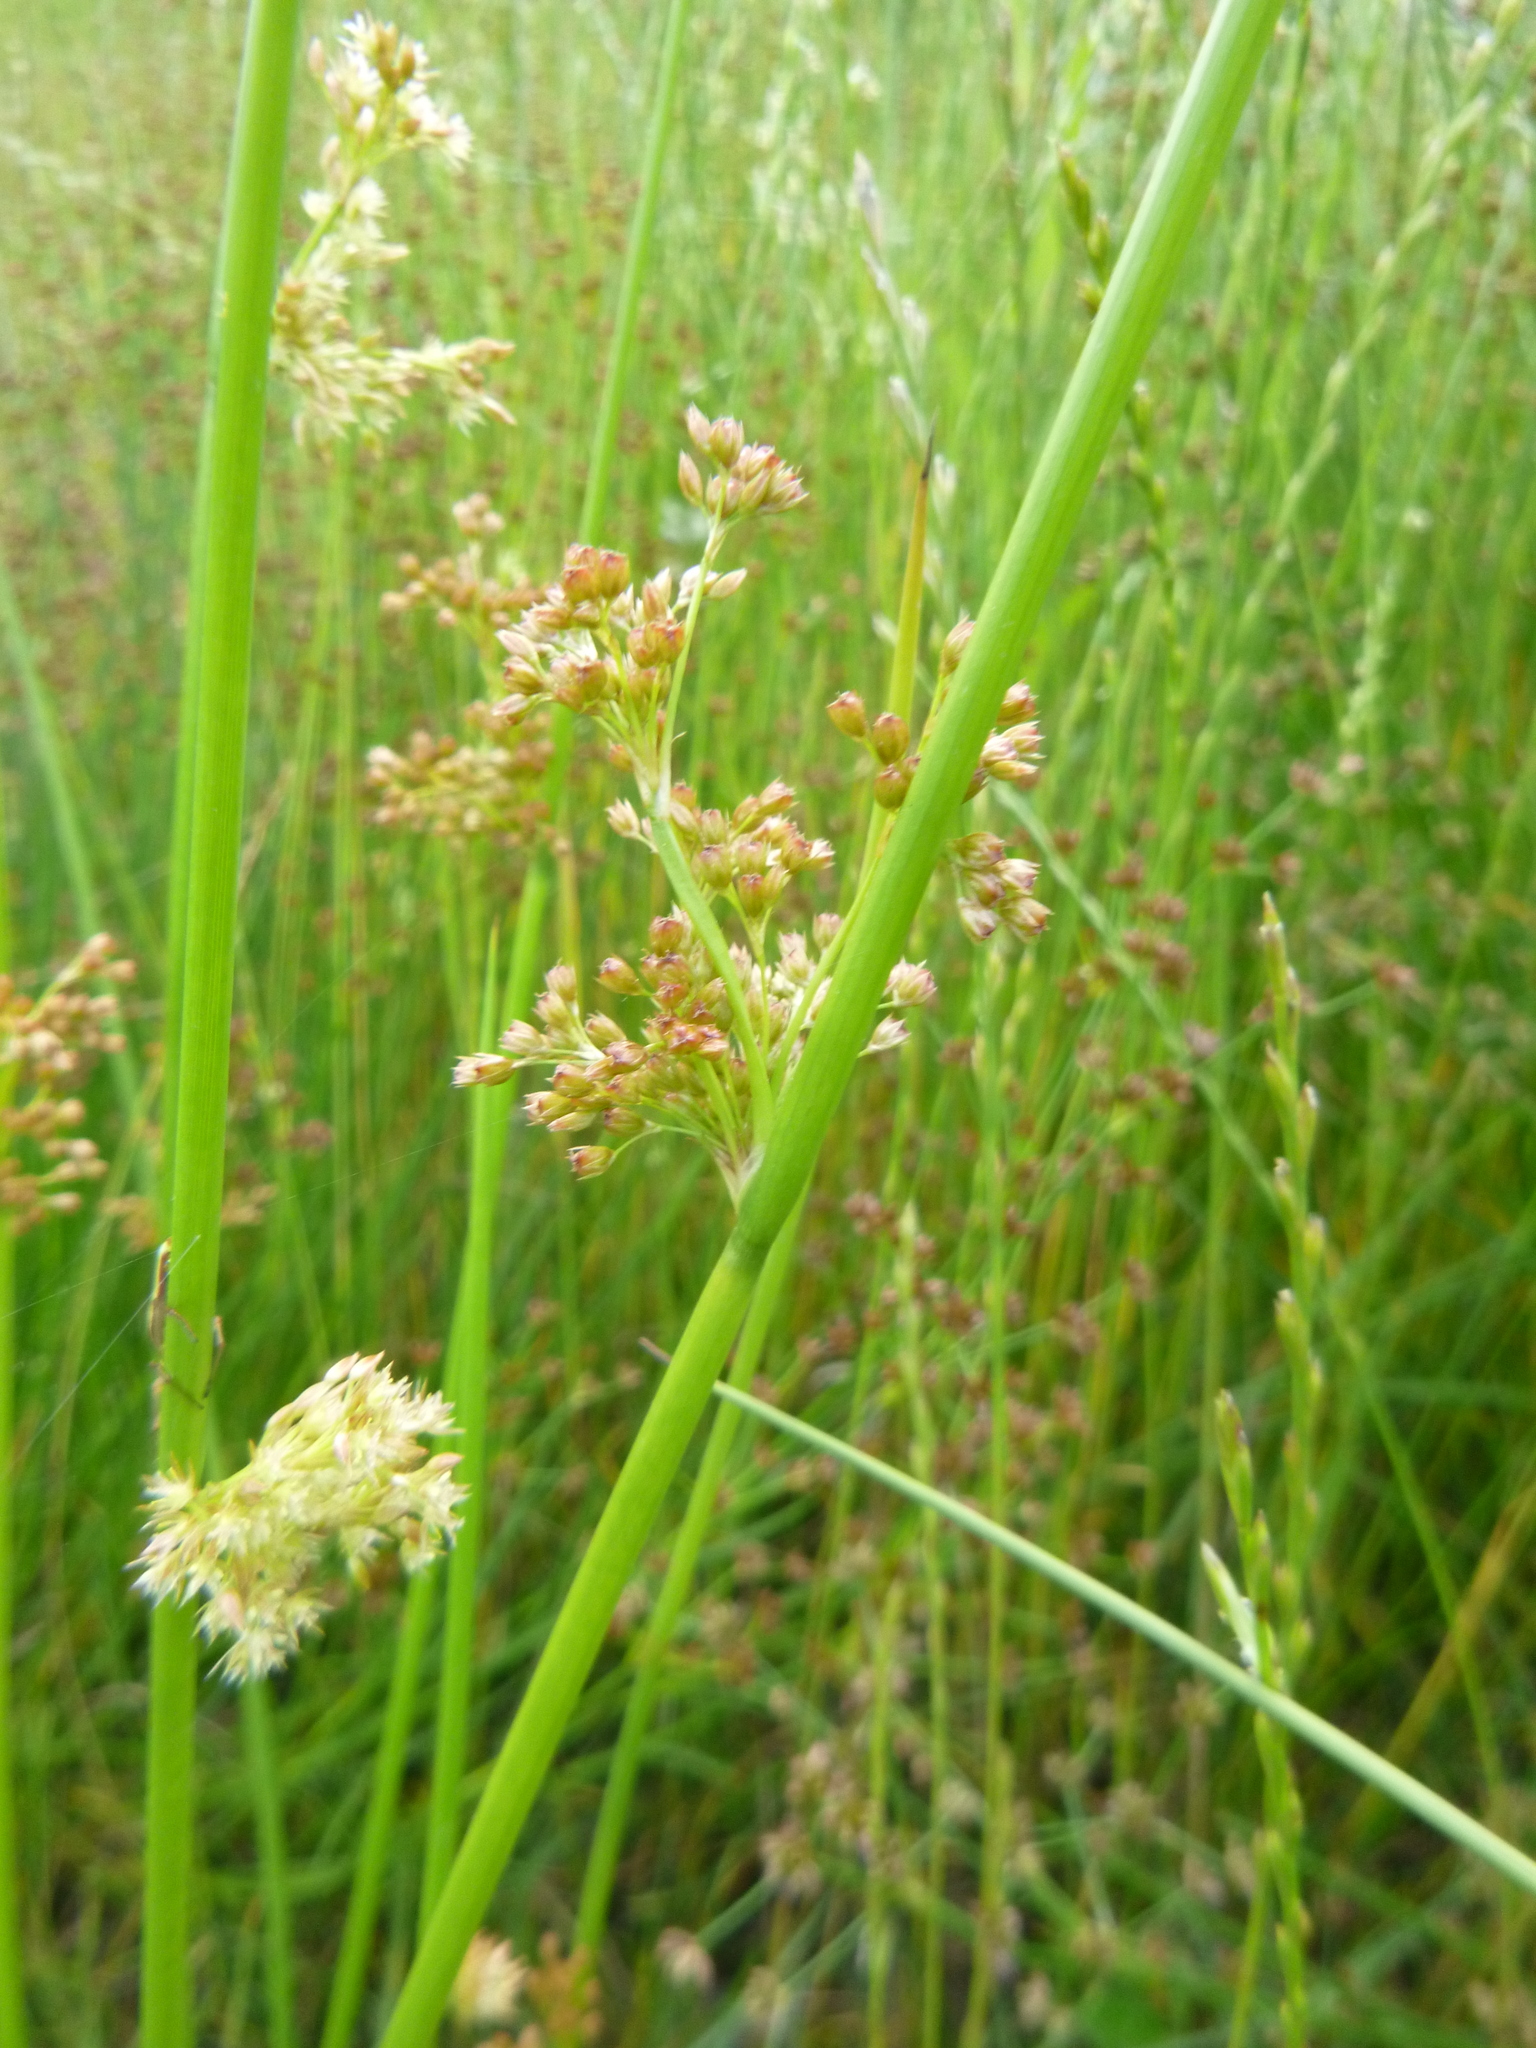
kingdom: Plantae
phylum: Tracheophyta
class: Liliopsida
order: Poales
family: Juncaceae
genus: Juncus
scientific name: Juncus effusus
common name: Soft rush
